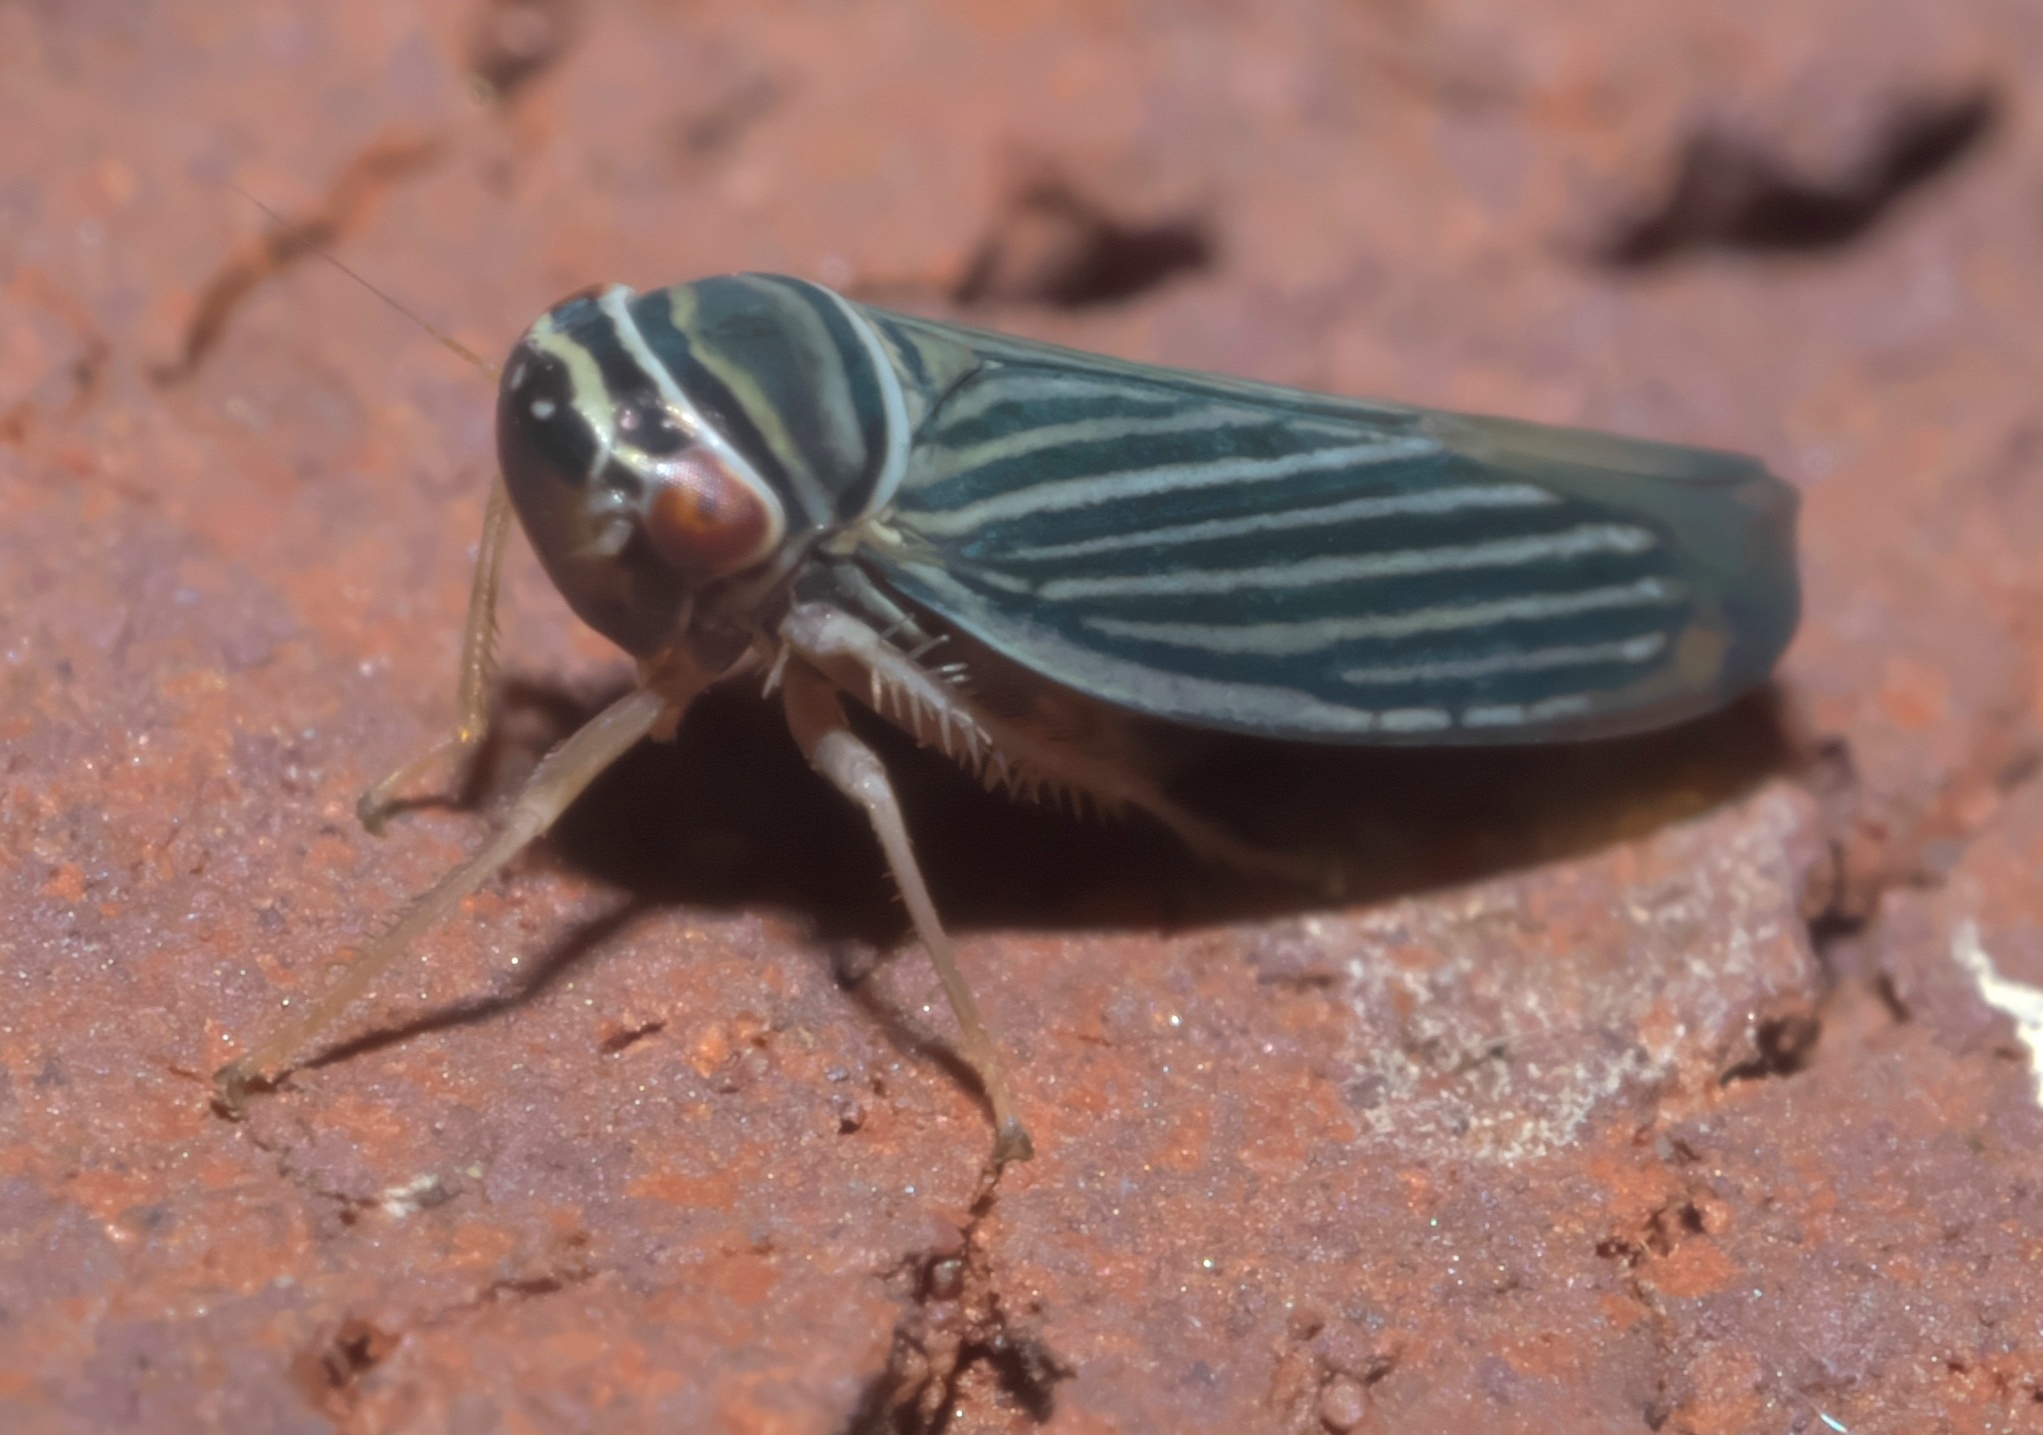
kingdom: Animalia
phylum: Arthropoda
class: Insecta
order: Hemiptera
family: Cicadellidae
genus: Tylozygus
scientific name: Tylozygus bifidus
